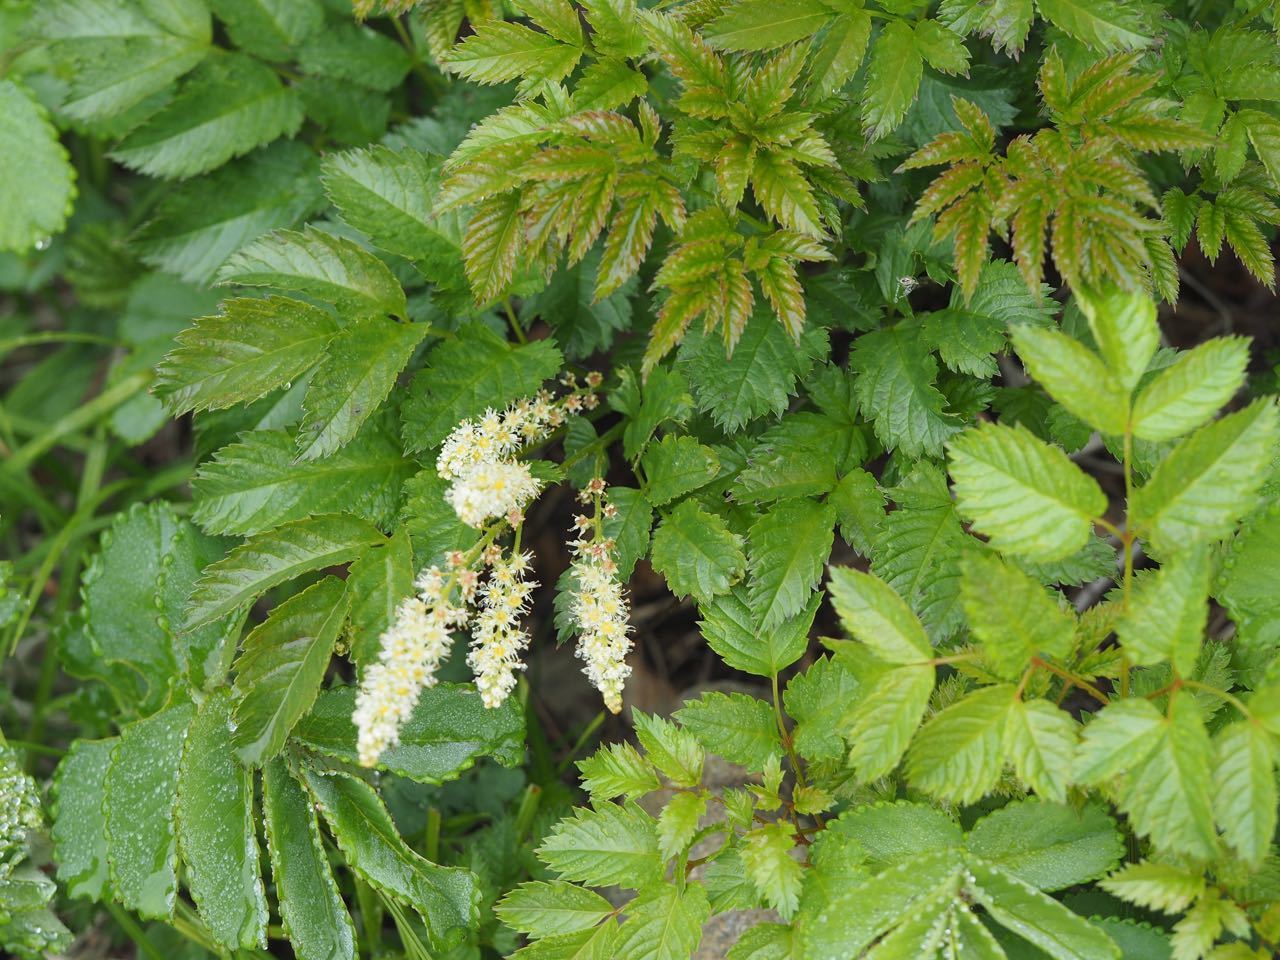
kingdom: Plantae
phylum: Tracheophyta
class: Magnoliopsida
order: Rosales
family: Rosaceae
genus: Aruncus
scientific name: Aruncus sylvester
